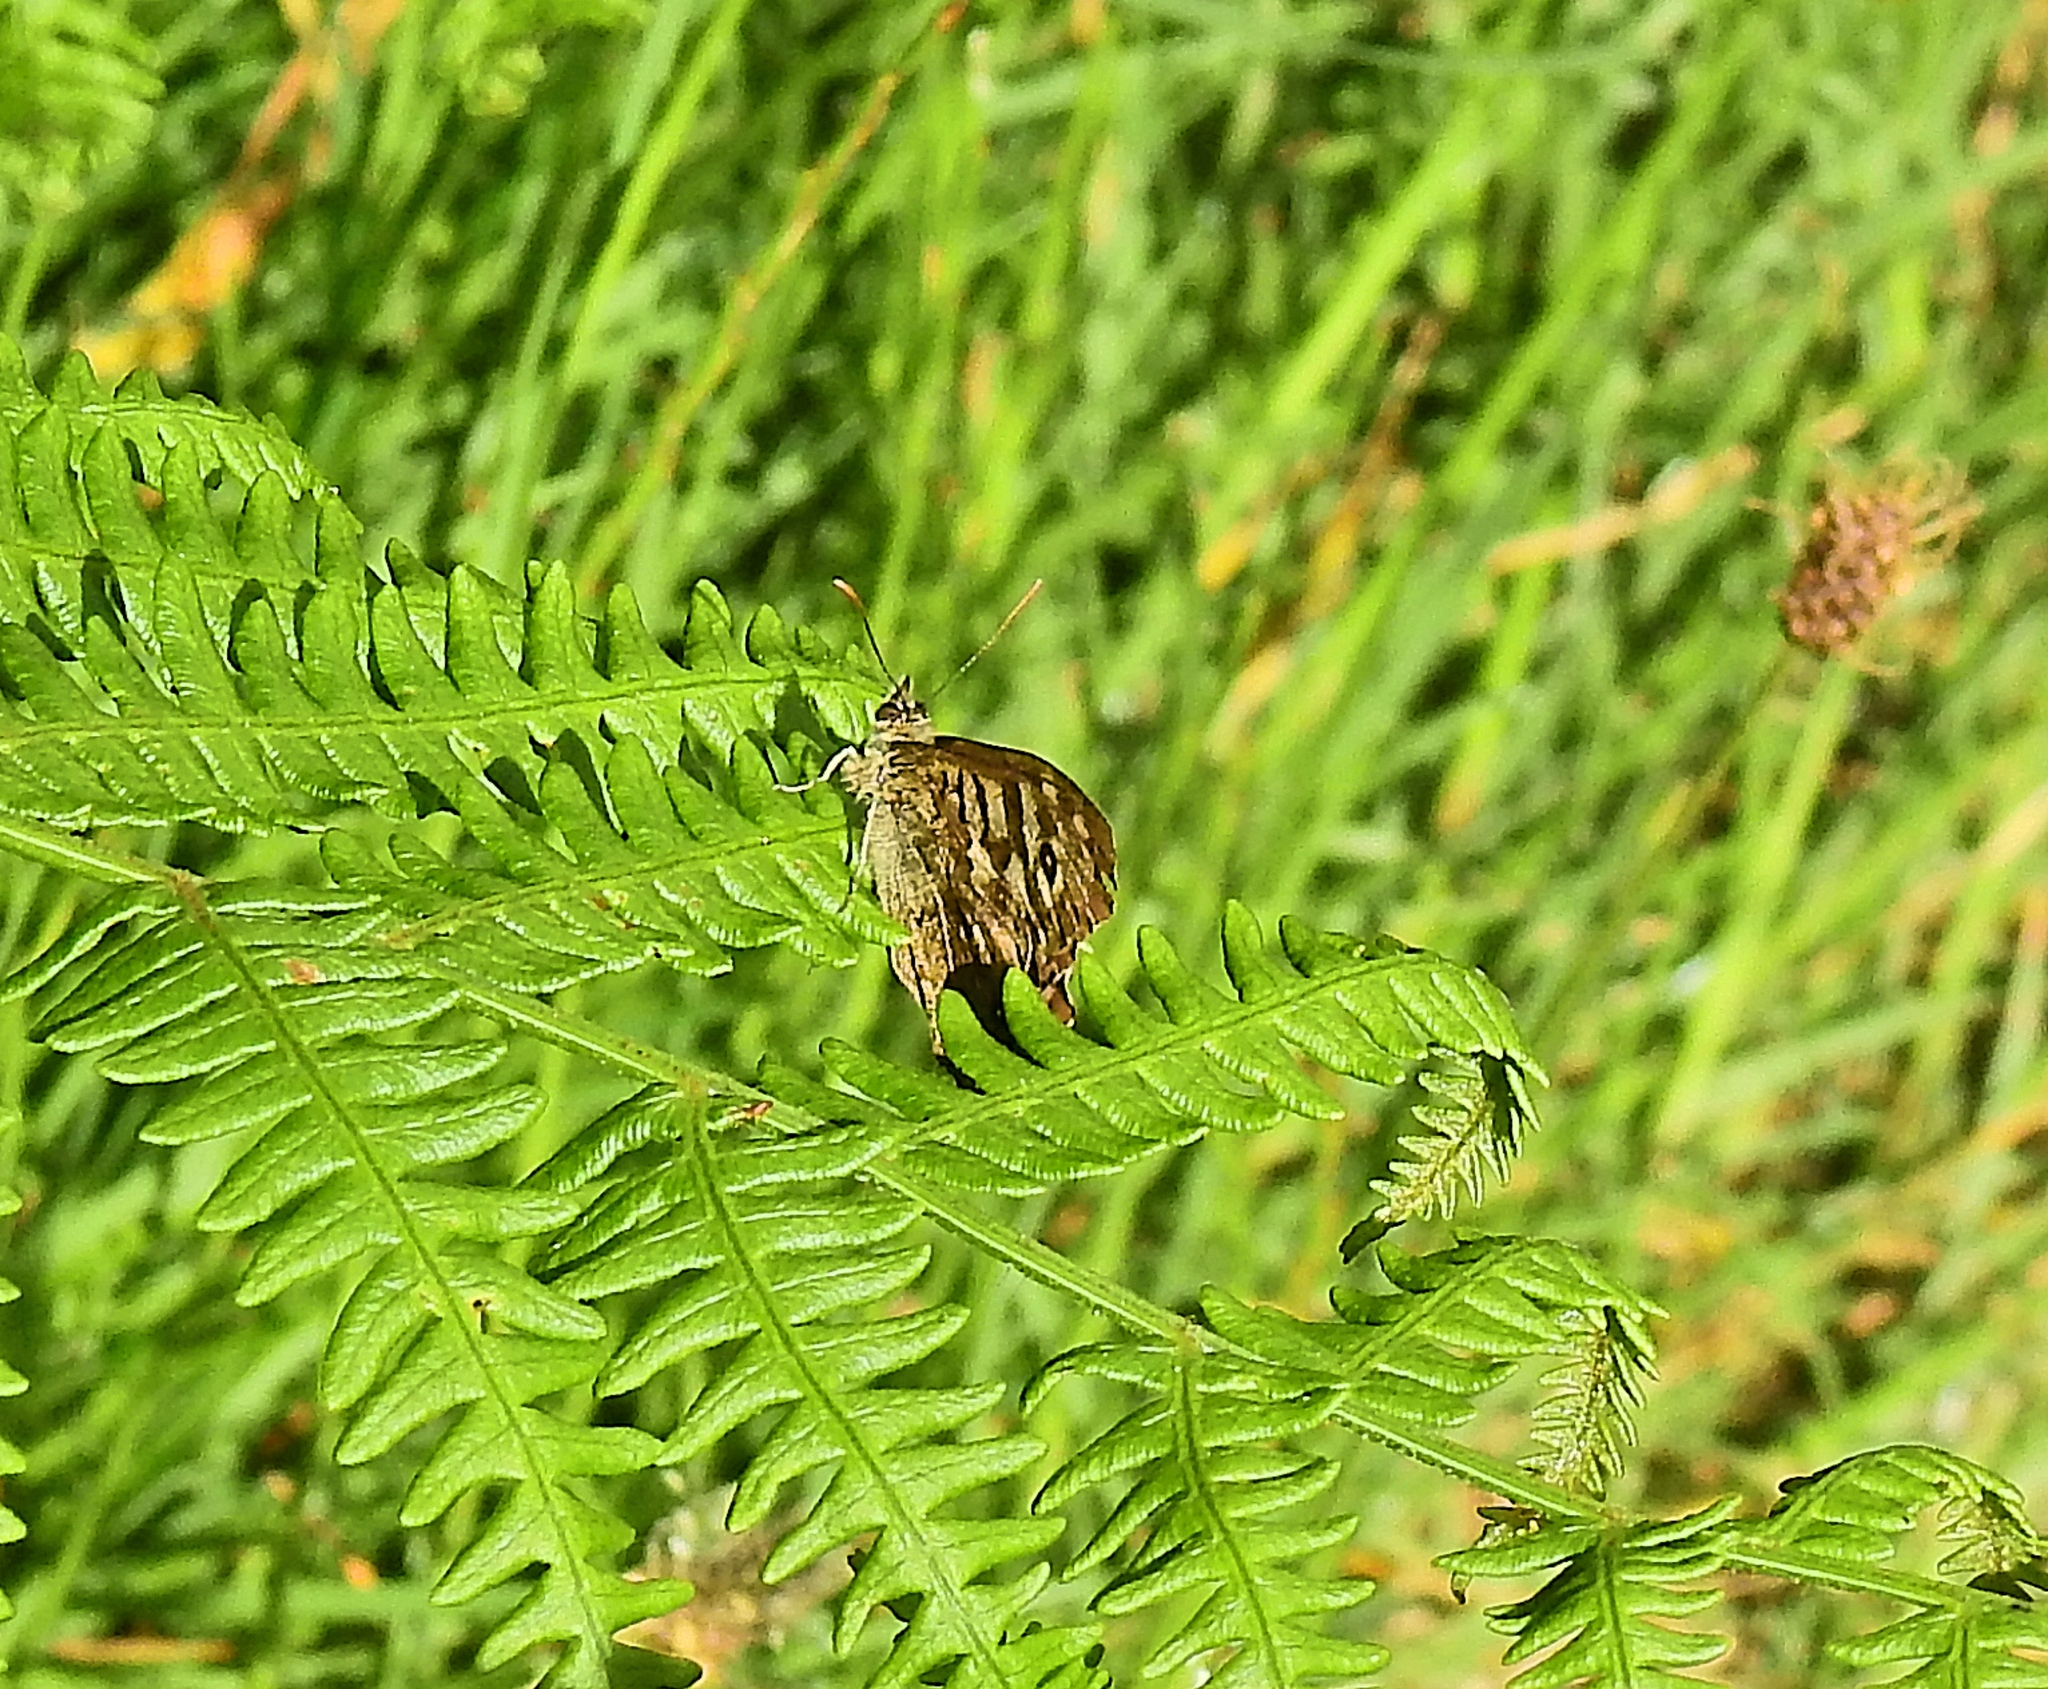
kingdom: Animalia
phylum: Arthropoda
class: Insecta
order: Lepidoptera
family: Nymphalidae
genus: Pararge
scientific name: Pararge aegeria
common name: Speckled wood
